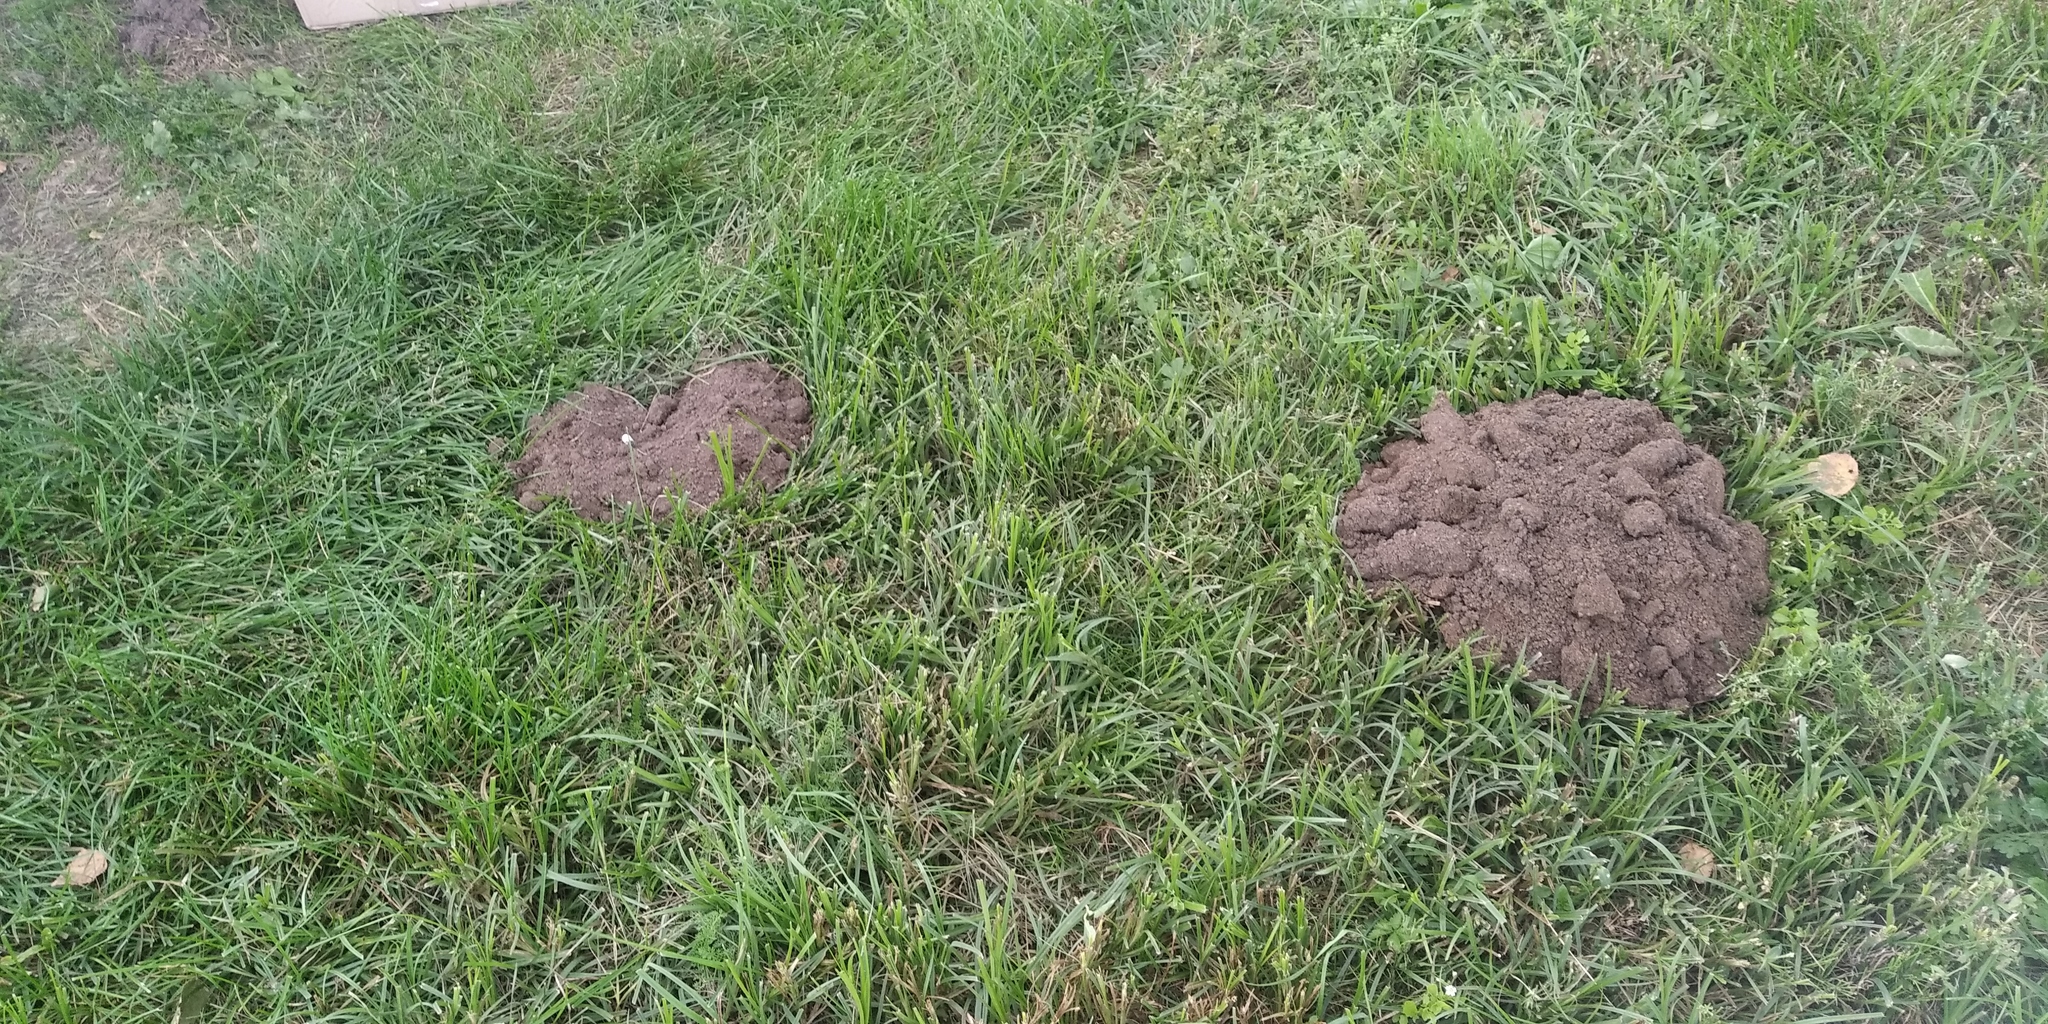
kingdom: Animalia
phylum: Chordata
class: Mammalia
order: Soricomorpha
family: Talpidae
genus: Talpa
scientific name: Talpa europaea
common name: European mole
